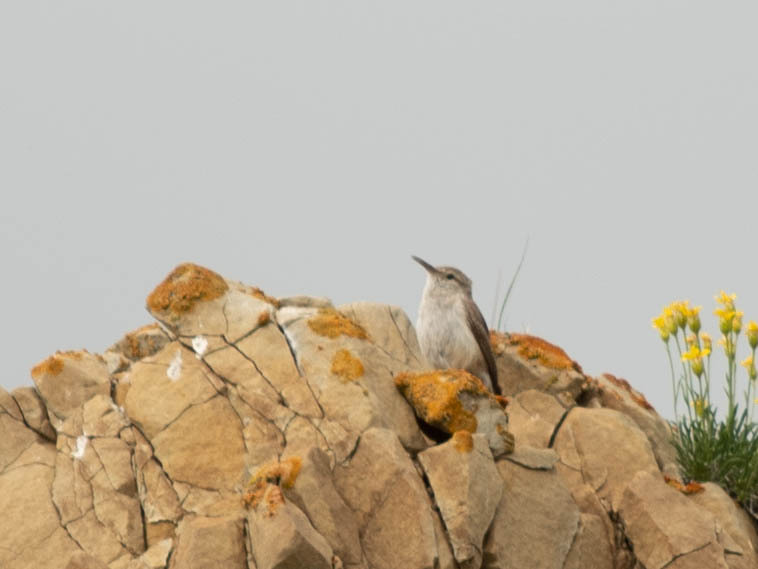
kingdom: Animalia
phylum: Chordata
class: Aves
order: Passeriformes
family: Troglodytidae
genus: Salpinctes
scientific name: Salpinctes obsoletus
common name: Rock wren
